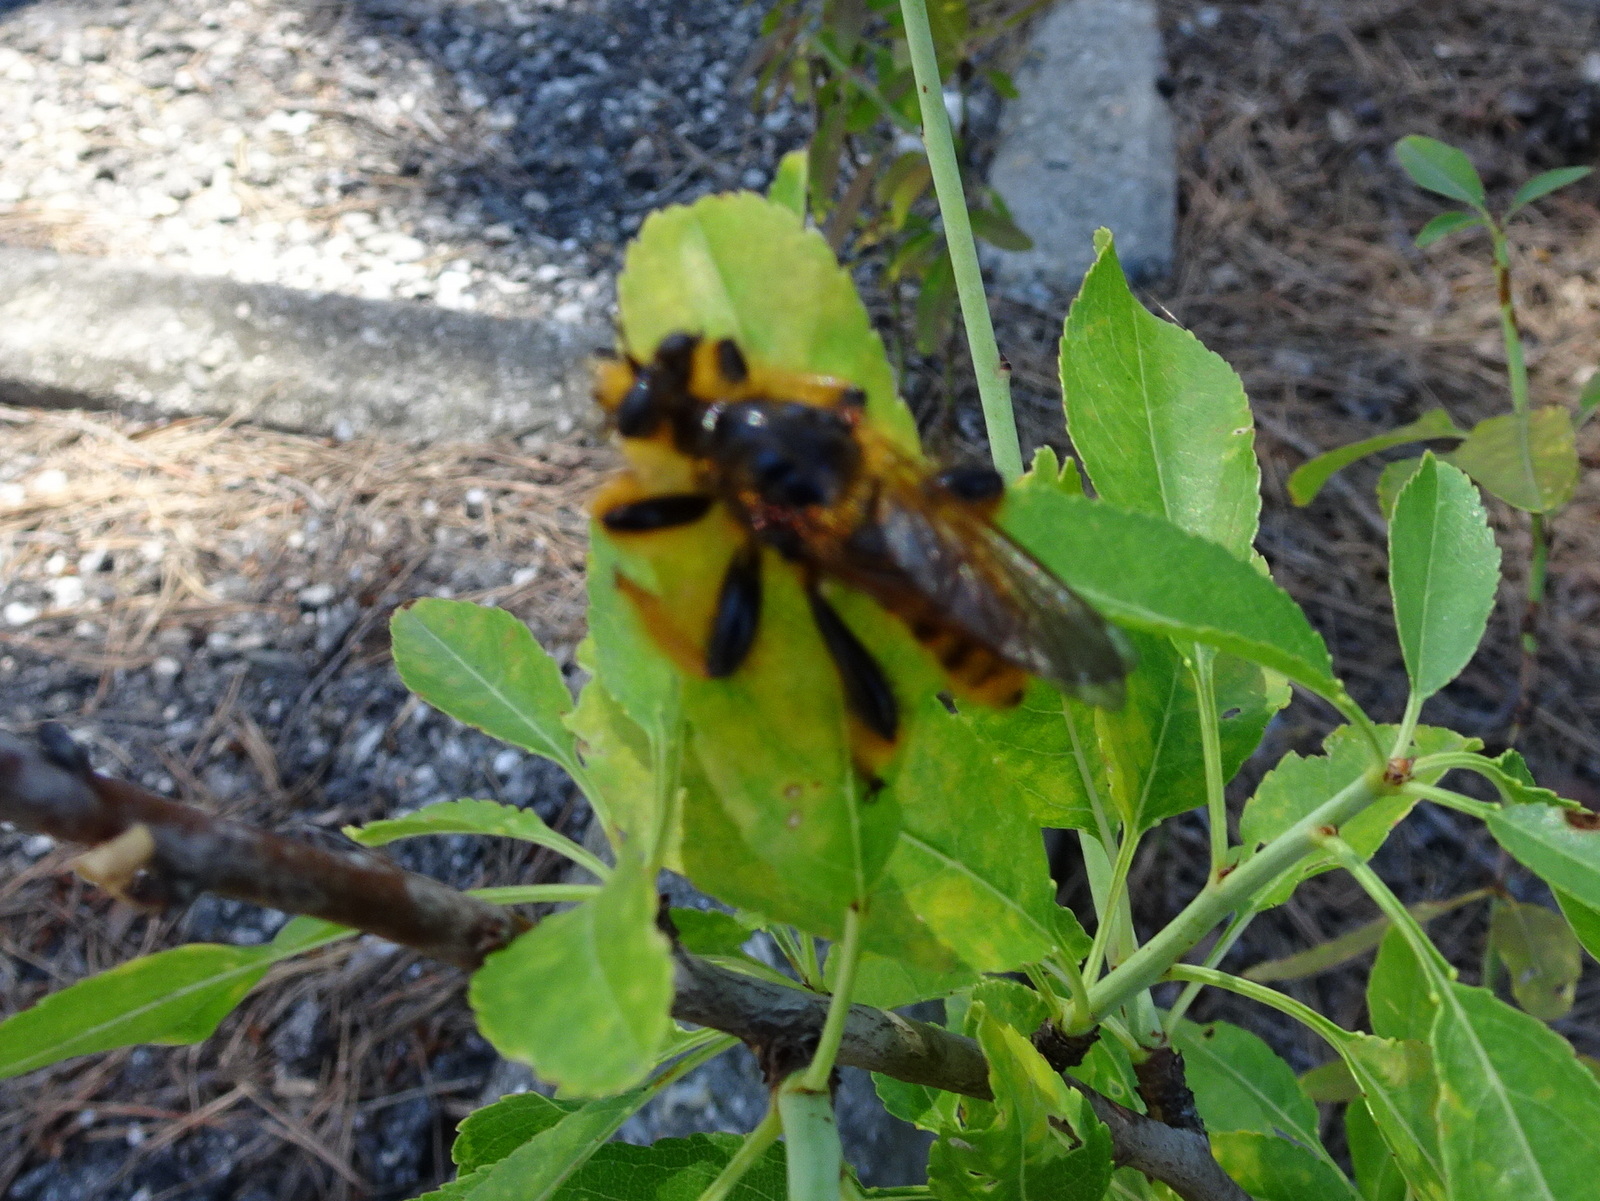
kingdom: Animalia
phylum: Arthropoda
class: Insecta
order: Diptera
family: Asilidae
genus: Pogonosoma
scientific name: Pogonosoma maroccanum
